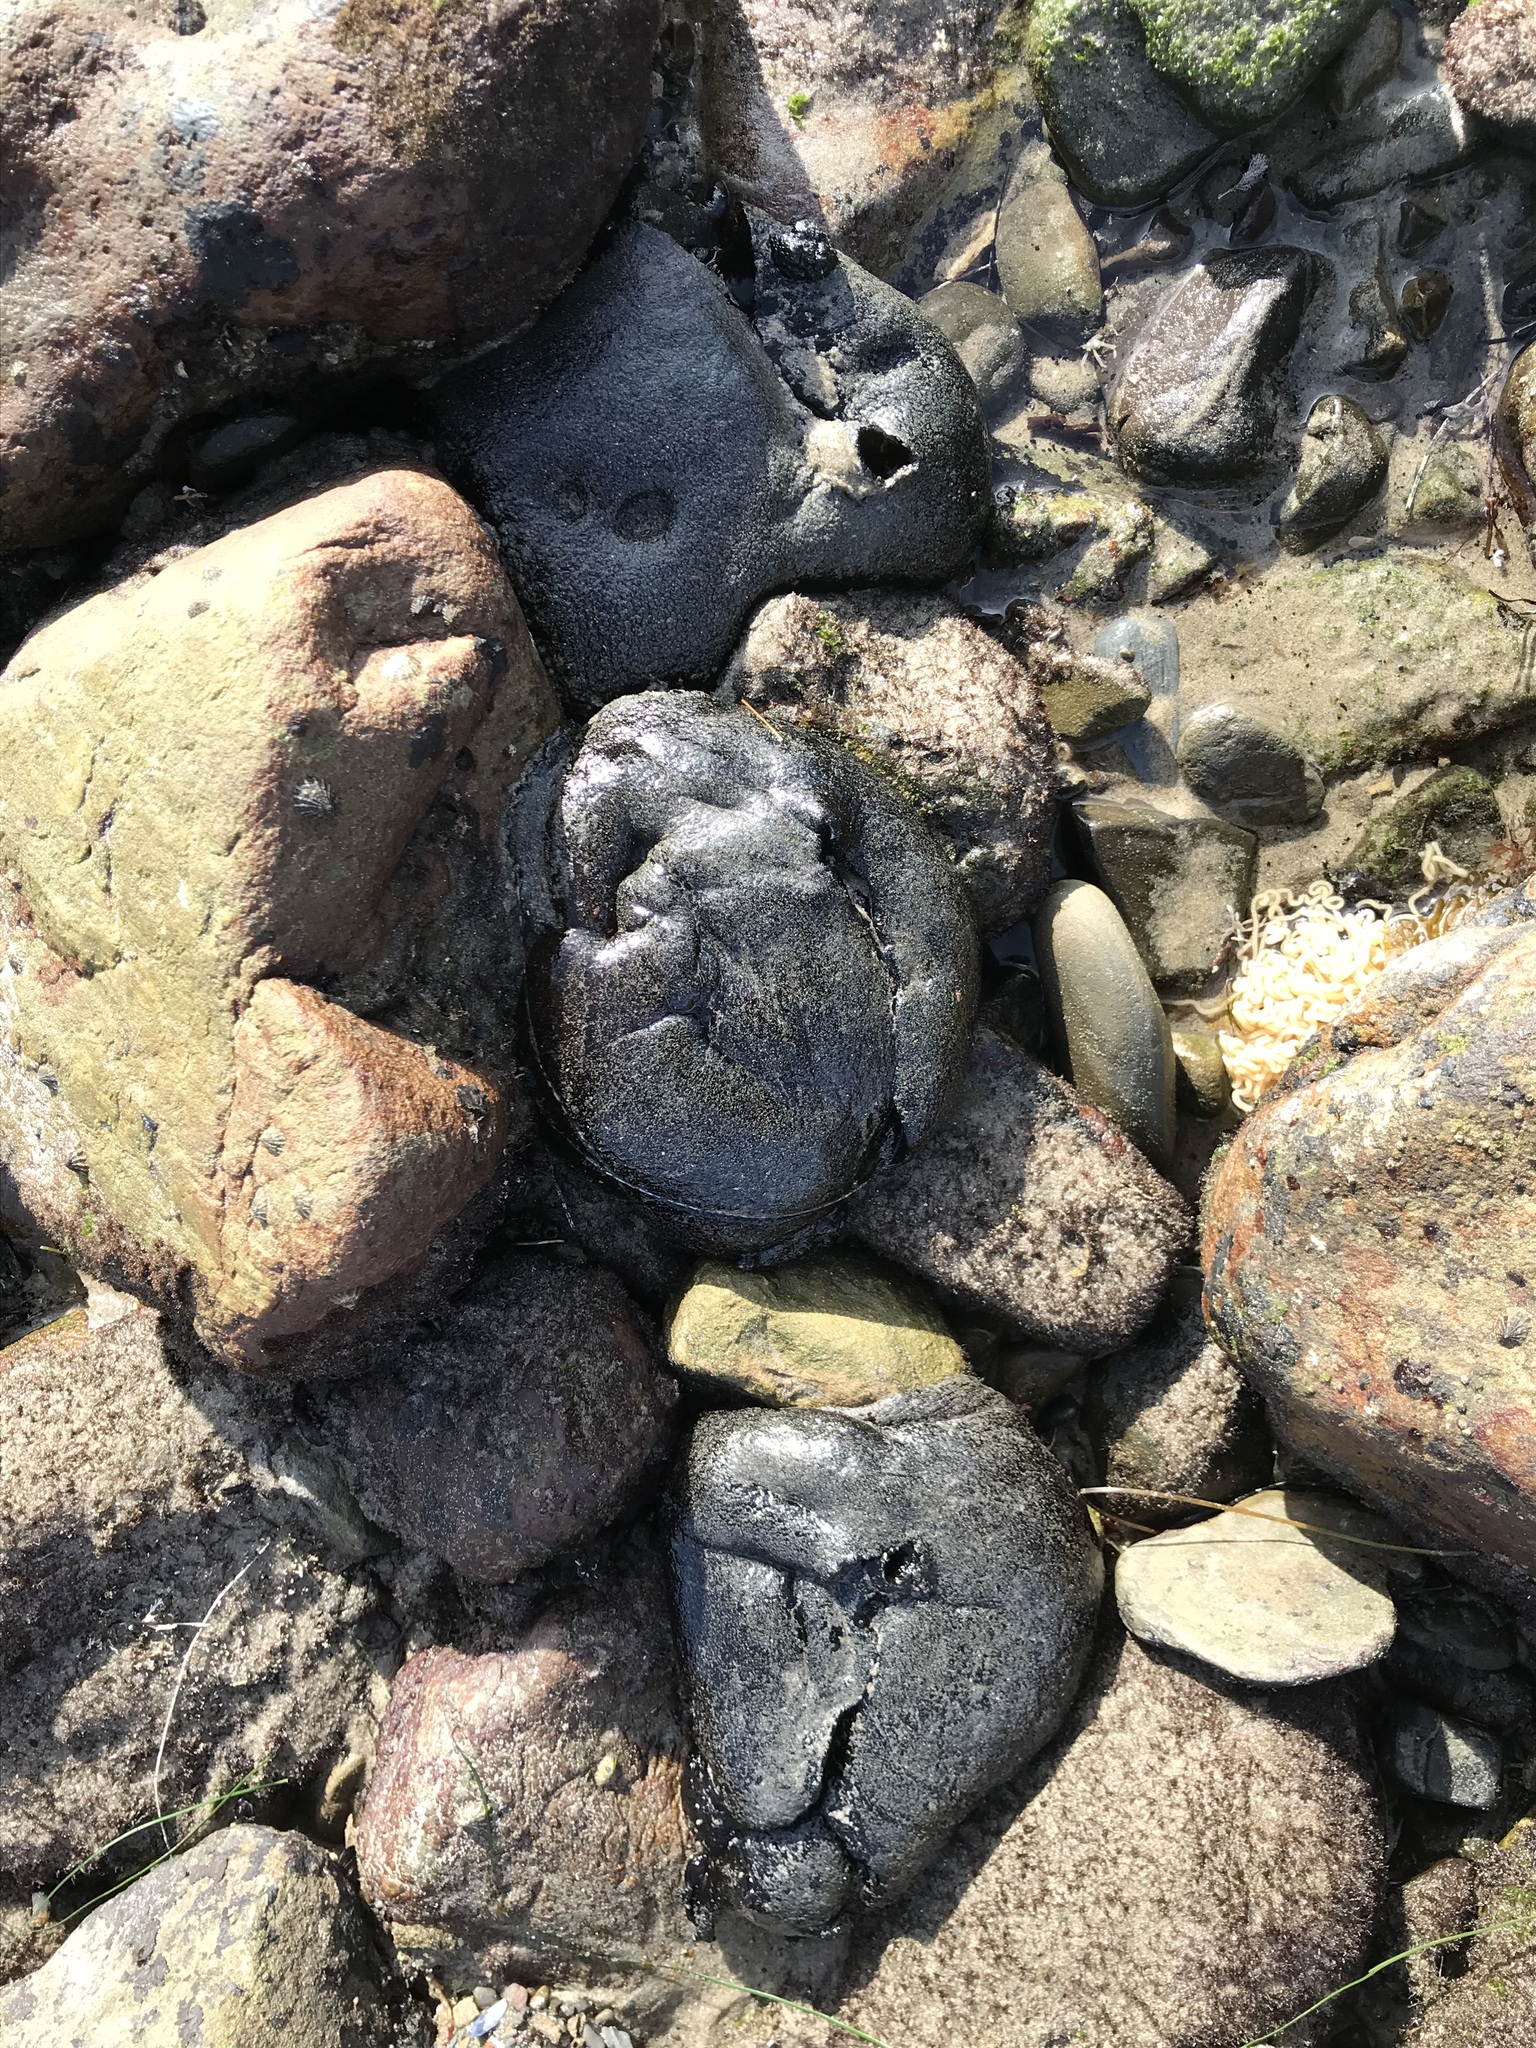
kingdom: Animalia
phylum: Mollusca
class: Gastropoda
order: Aplysiida
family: Aplysiidae
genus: Aplysia
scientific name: Aplysia vaccaria
